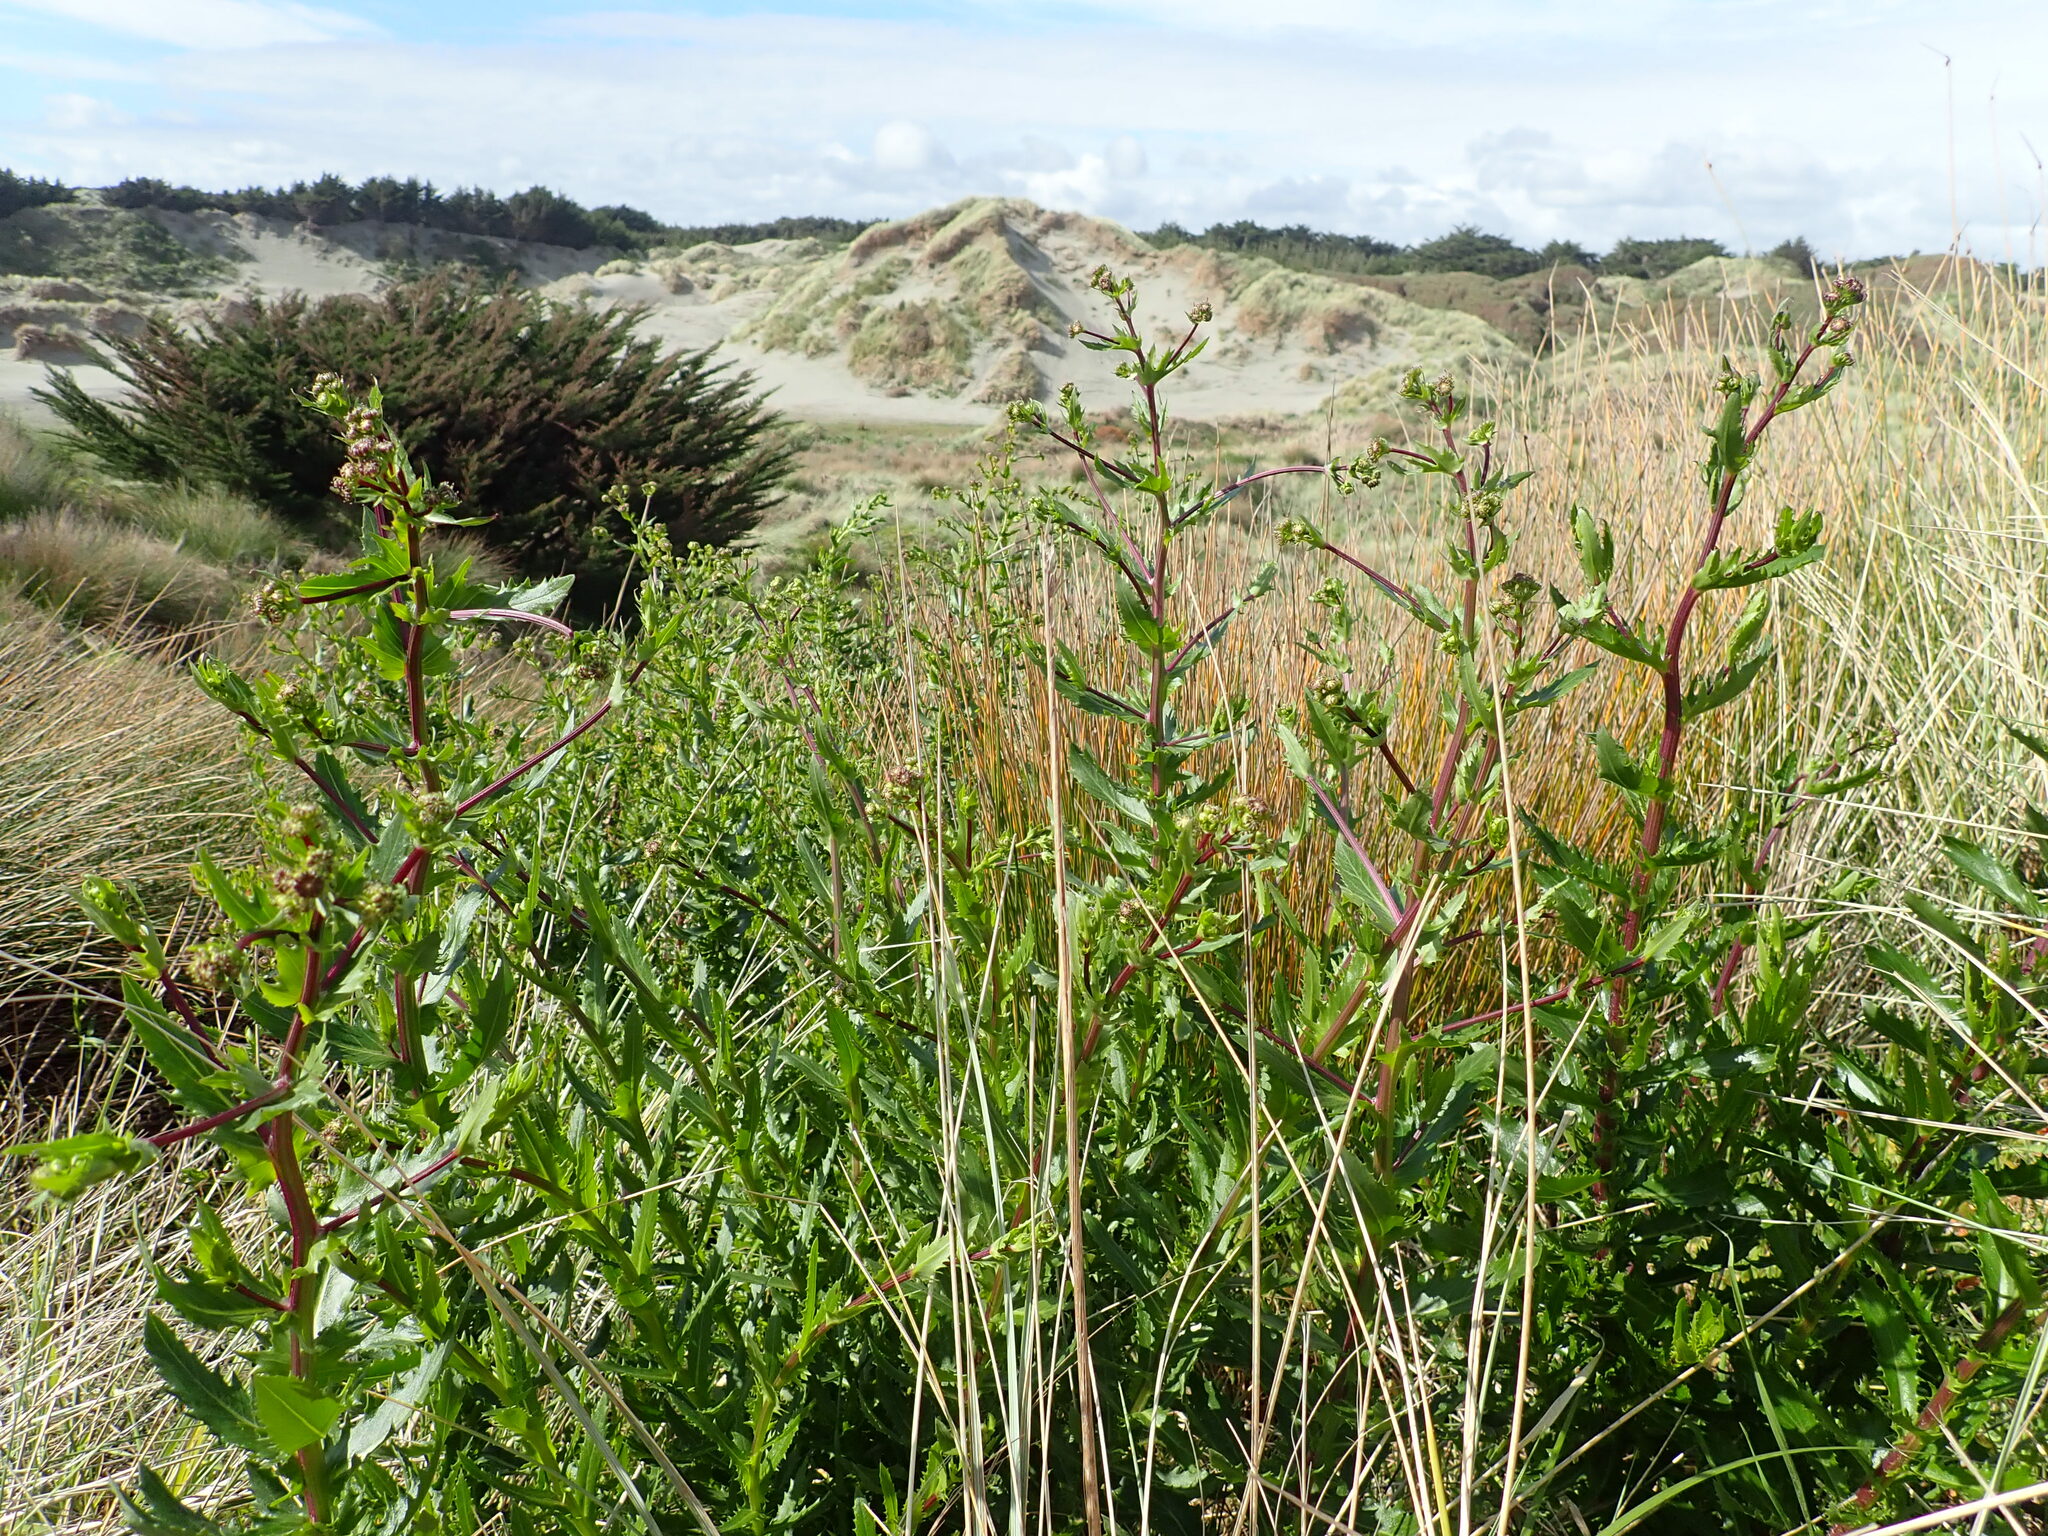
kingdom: Plantae
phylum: Tracheophyta
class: Magnoliopsida
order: Asterales
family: Asteraceae
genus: Senecio
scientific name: Senecio glastifolius
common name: Woad-leaved ragwort
